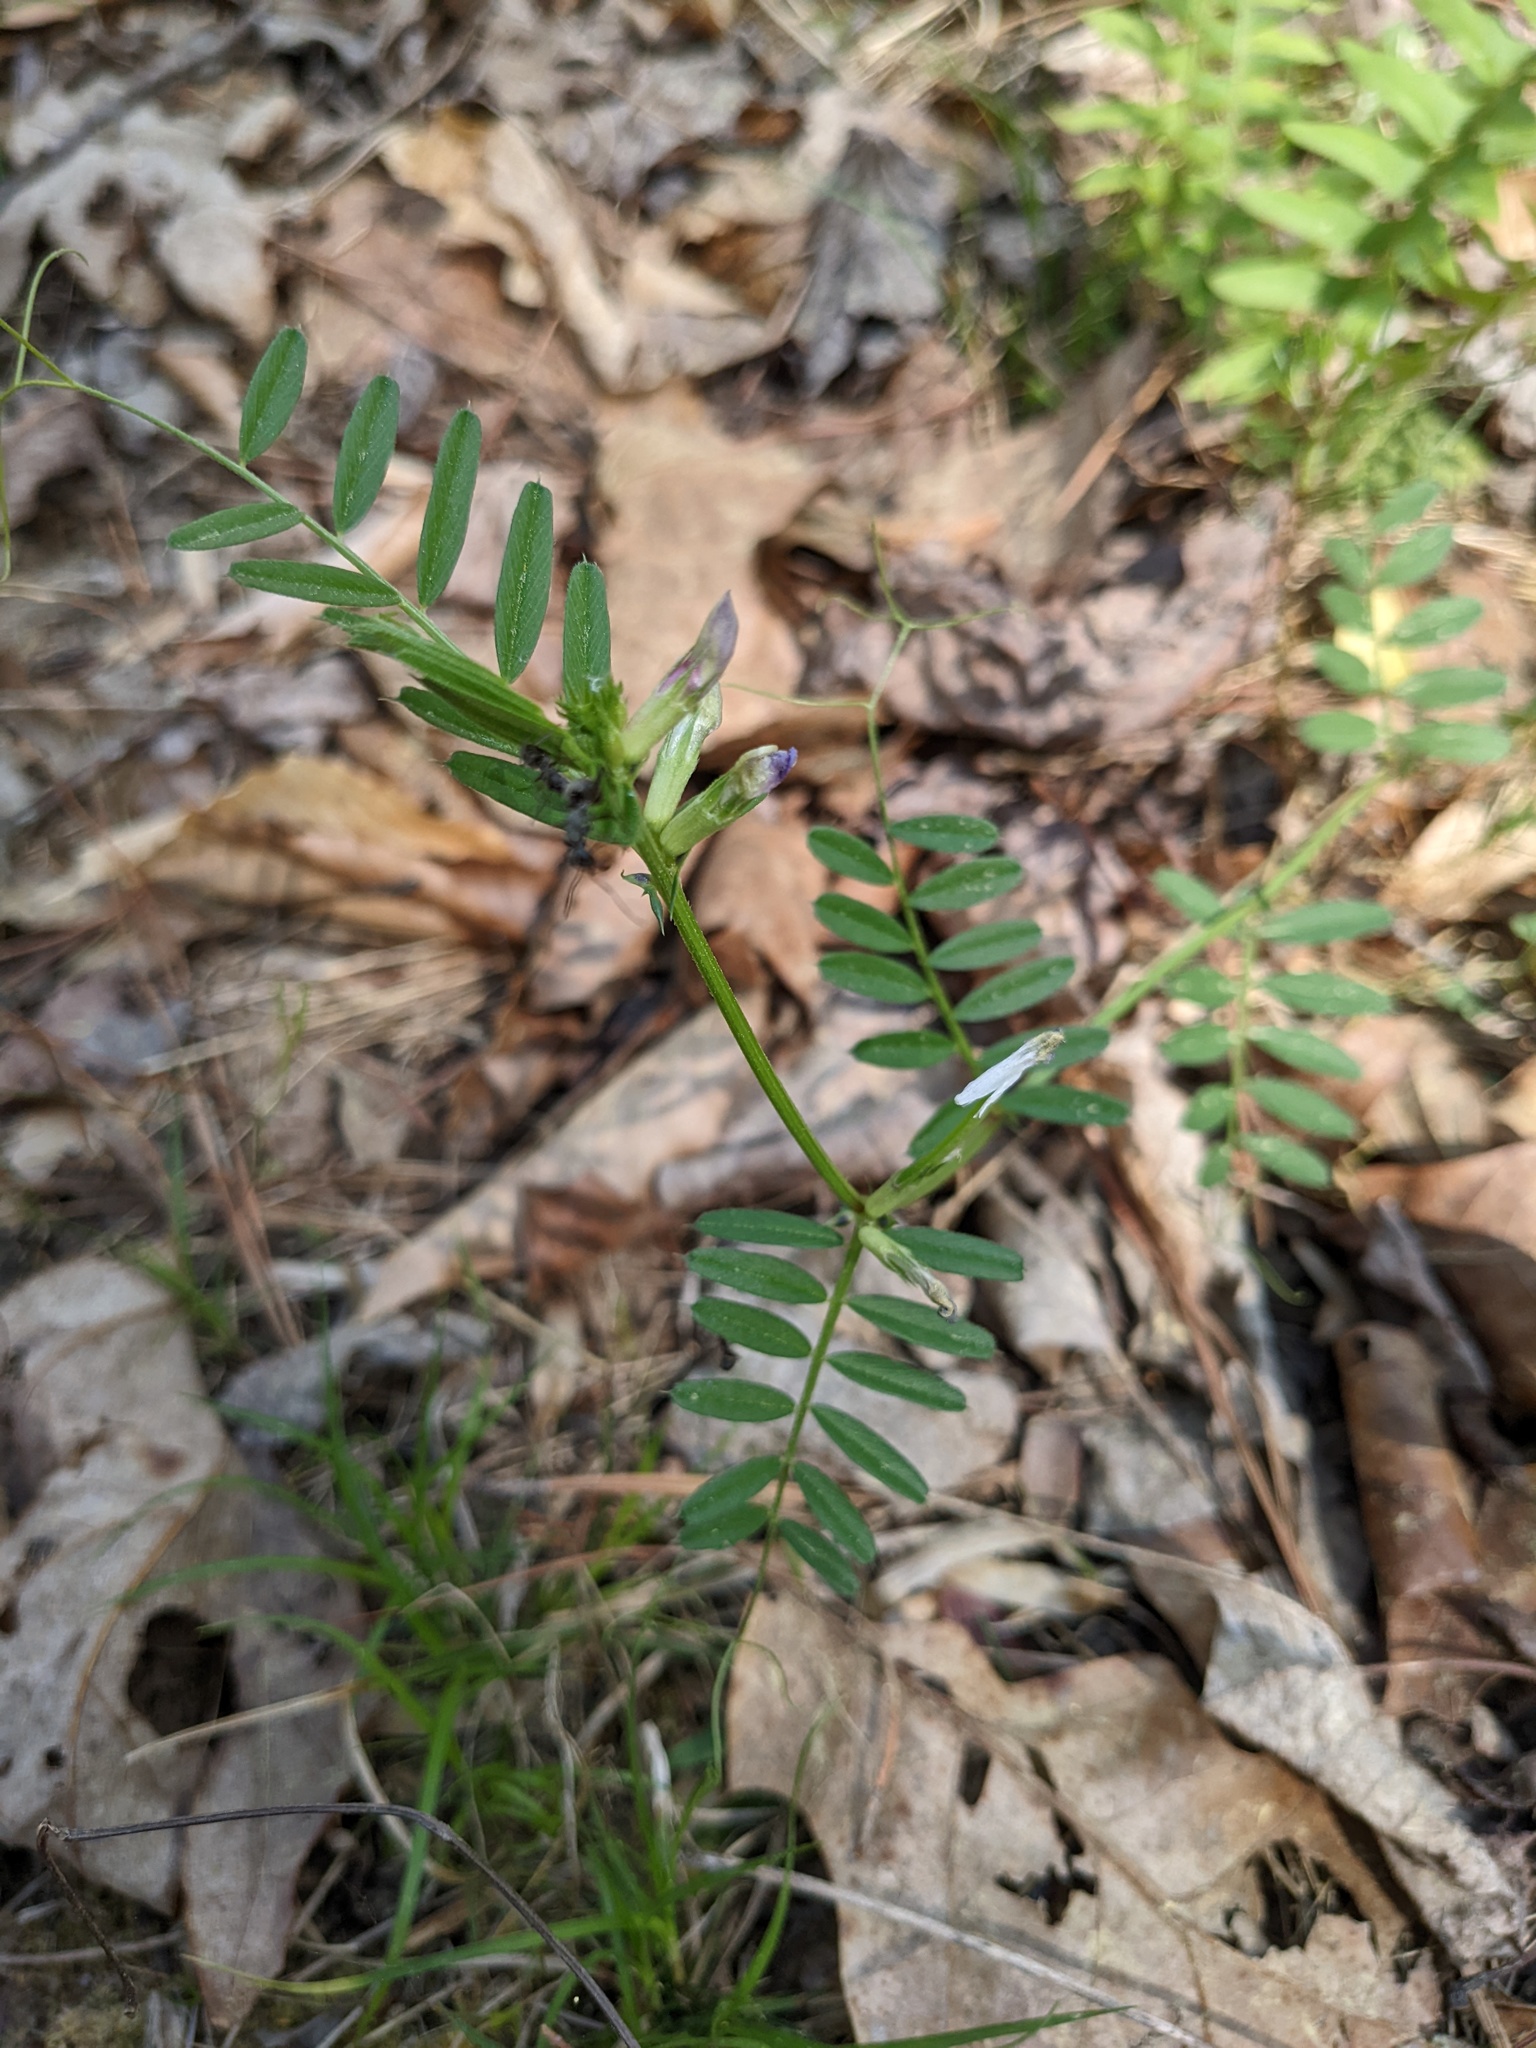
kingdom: Plantae
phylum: Tracheophyta
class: Magnoliopsida
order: Fabales
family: Fabaceae
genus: Vicia
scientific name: Vicia sativa
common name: Garden vetch
